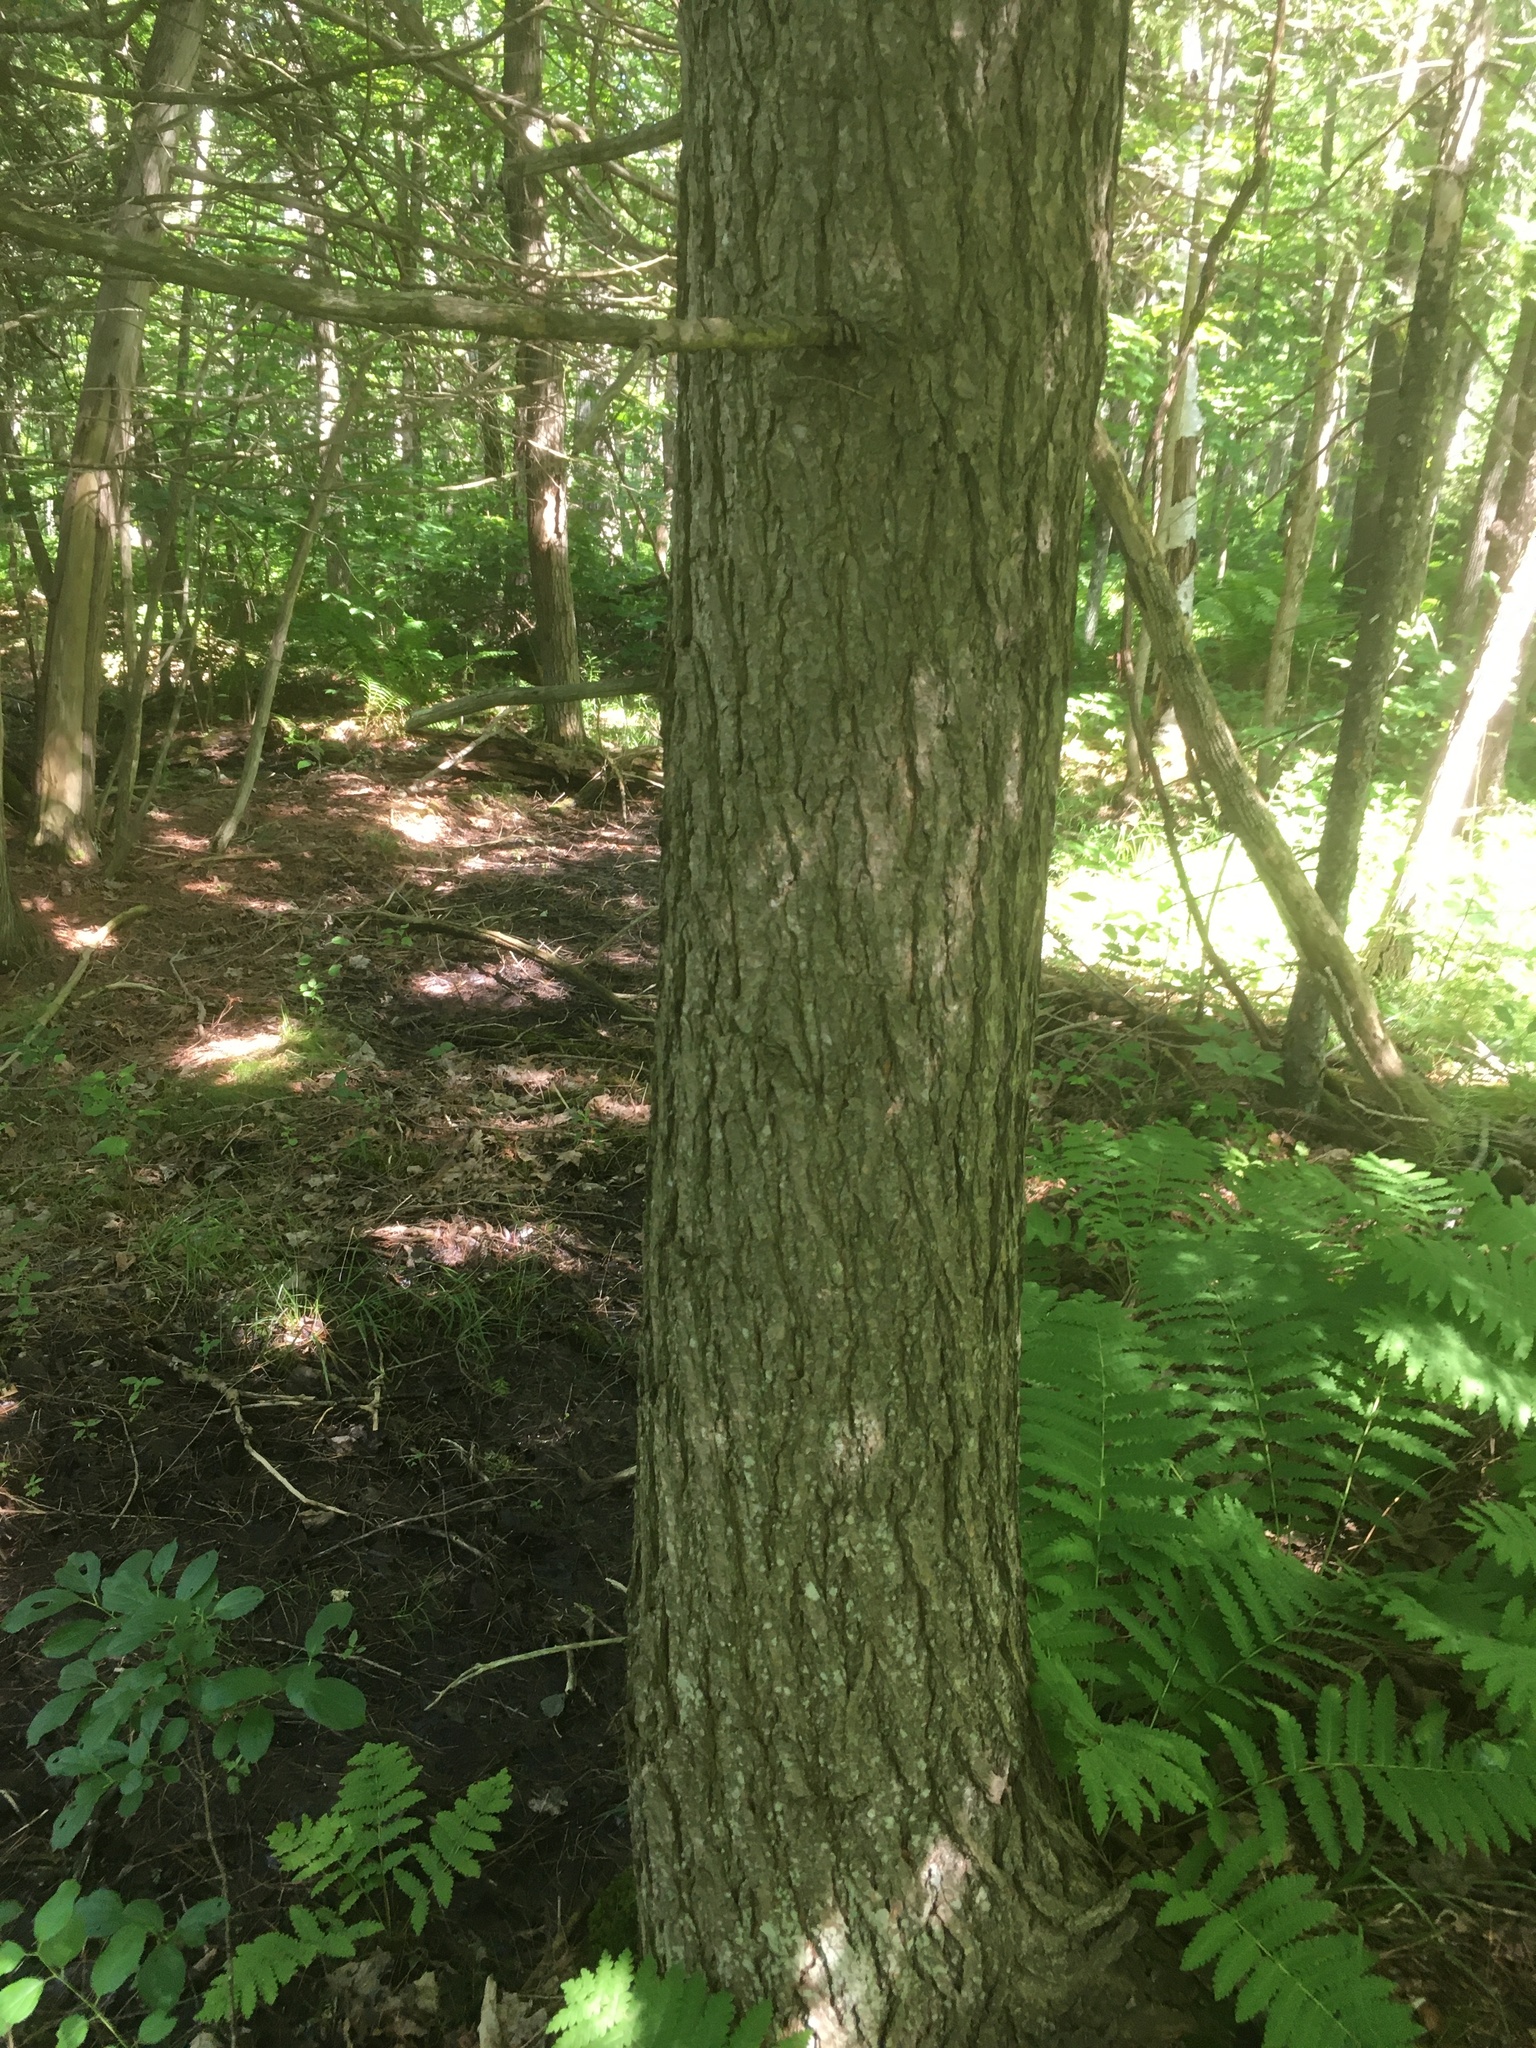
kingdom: Plantae
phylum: Tracheophyta
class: Pinopsida
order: Pinales
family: Pinaceae
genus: Tsuga
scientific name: Tsuga canadensis
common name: Eastern hemlock
